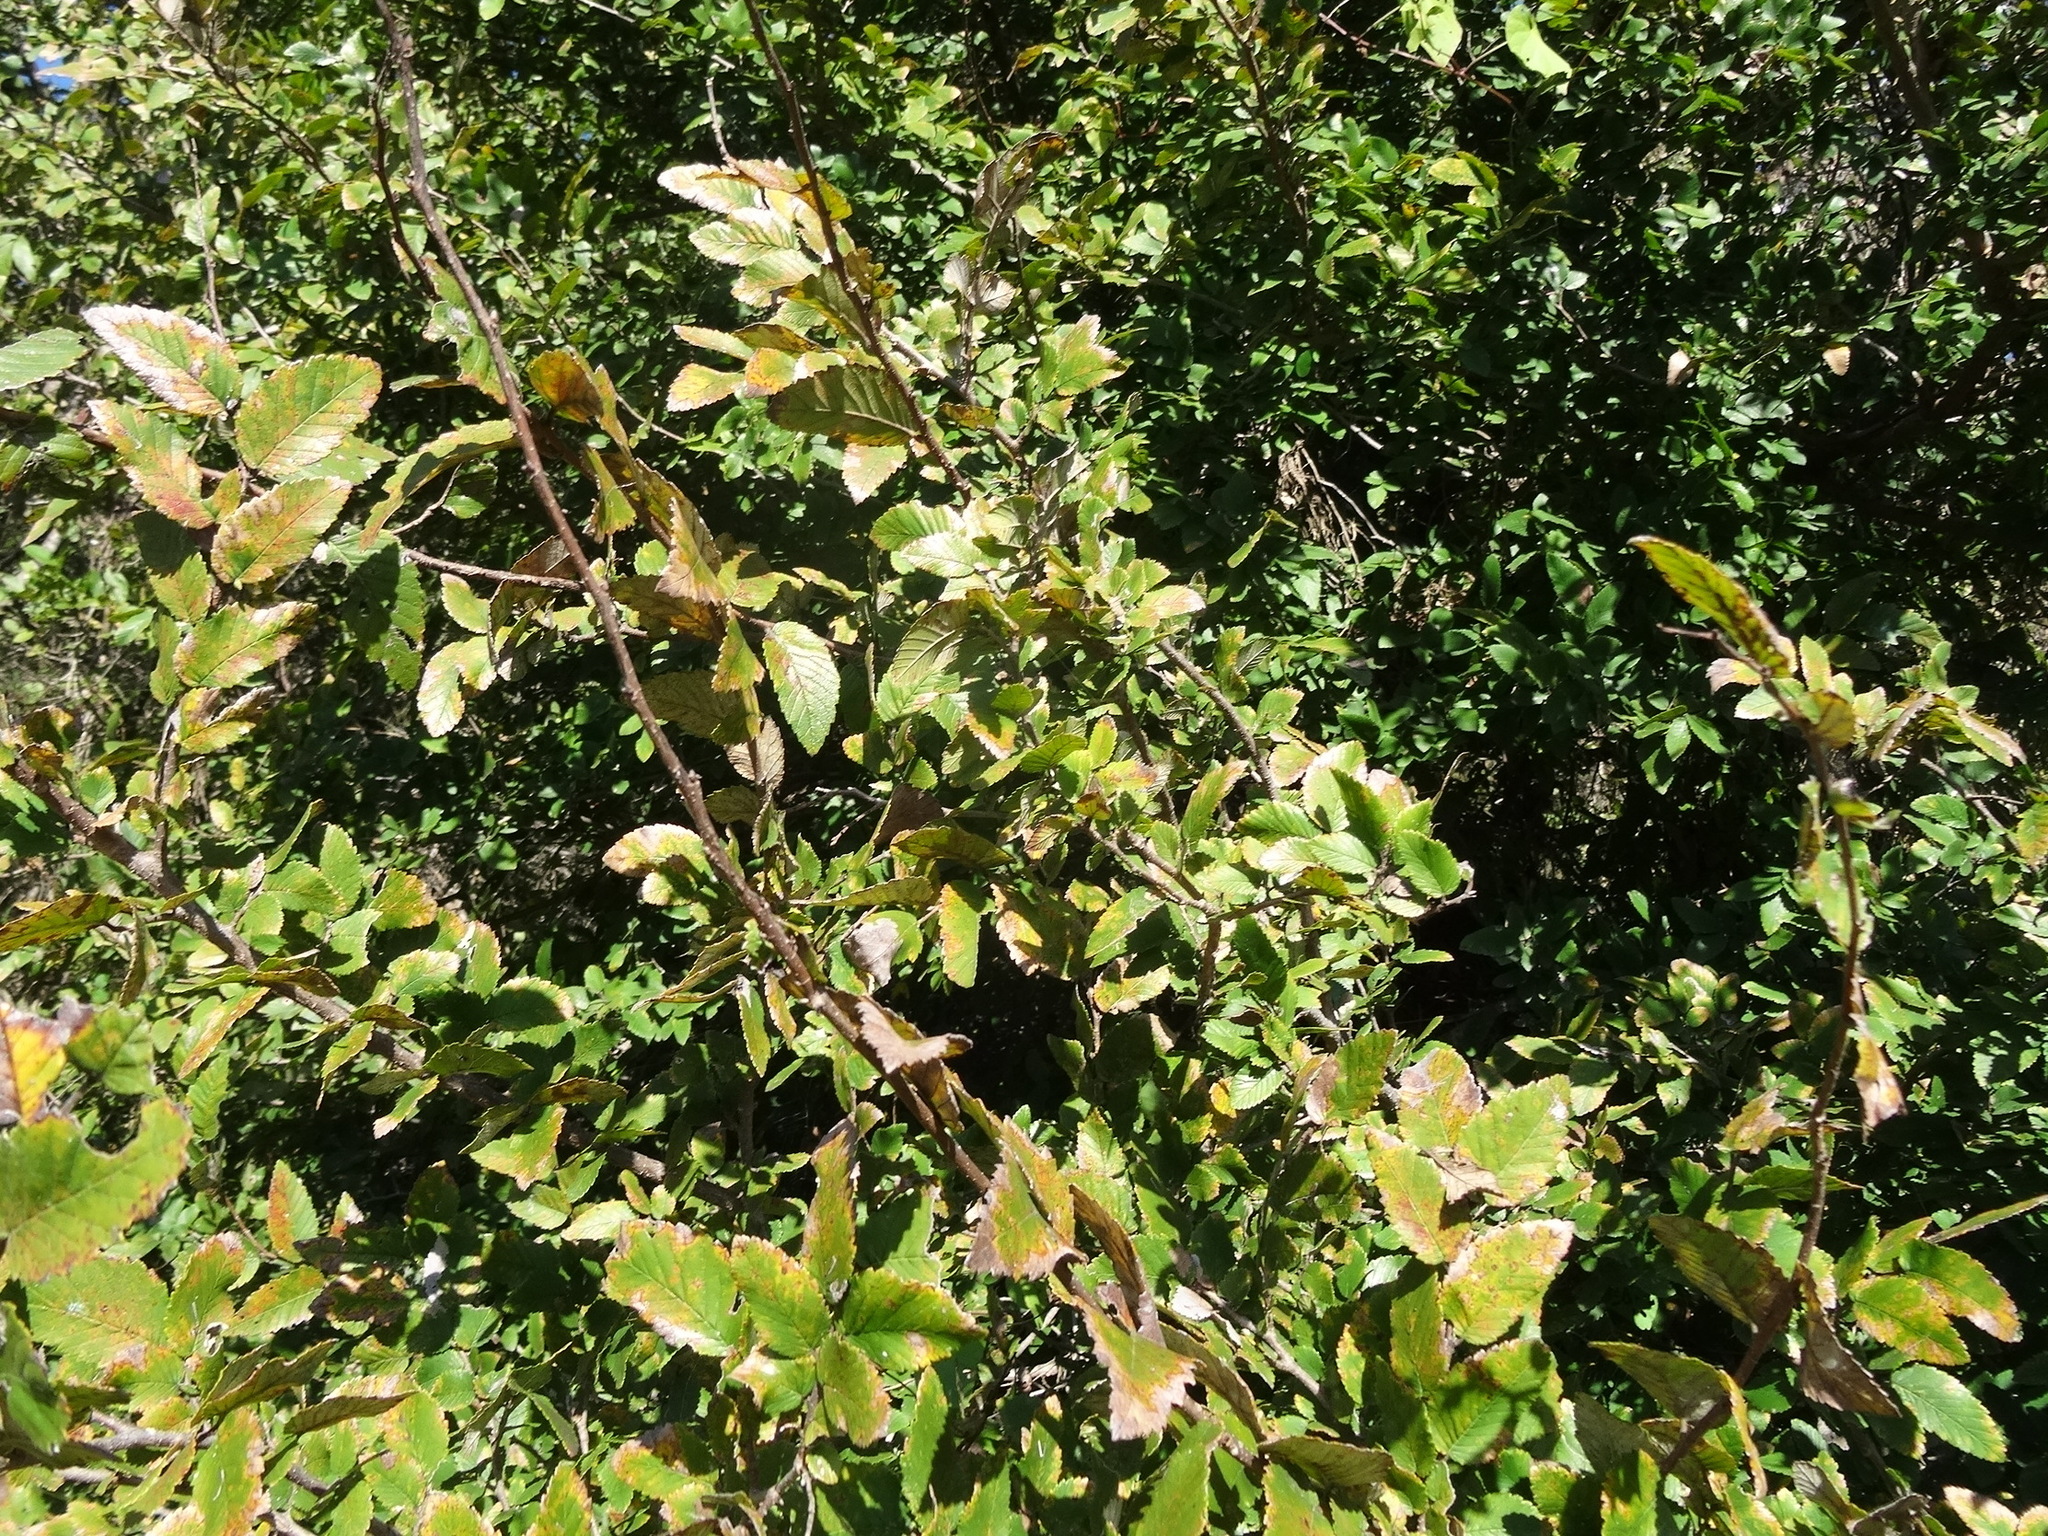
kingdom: Plantae
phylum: Tracheophyta
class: Magnoliopsida
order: Rosales
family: Ulmaceae
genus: Ulmus
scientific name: Ulmus crassifolia
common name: Basket elm
